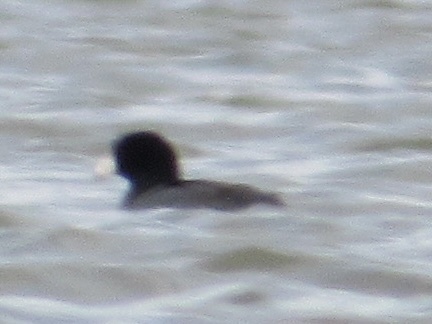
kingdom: Animalia
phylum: Chordata
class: Aves
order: Gruiformes
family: Rallidae
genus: Fulica
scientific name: Fulica americana
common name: American coot
